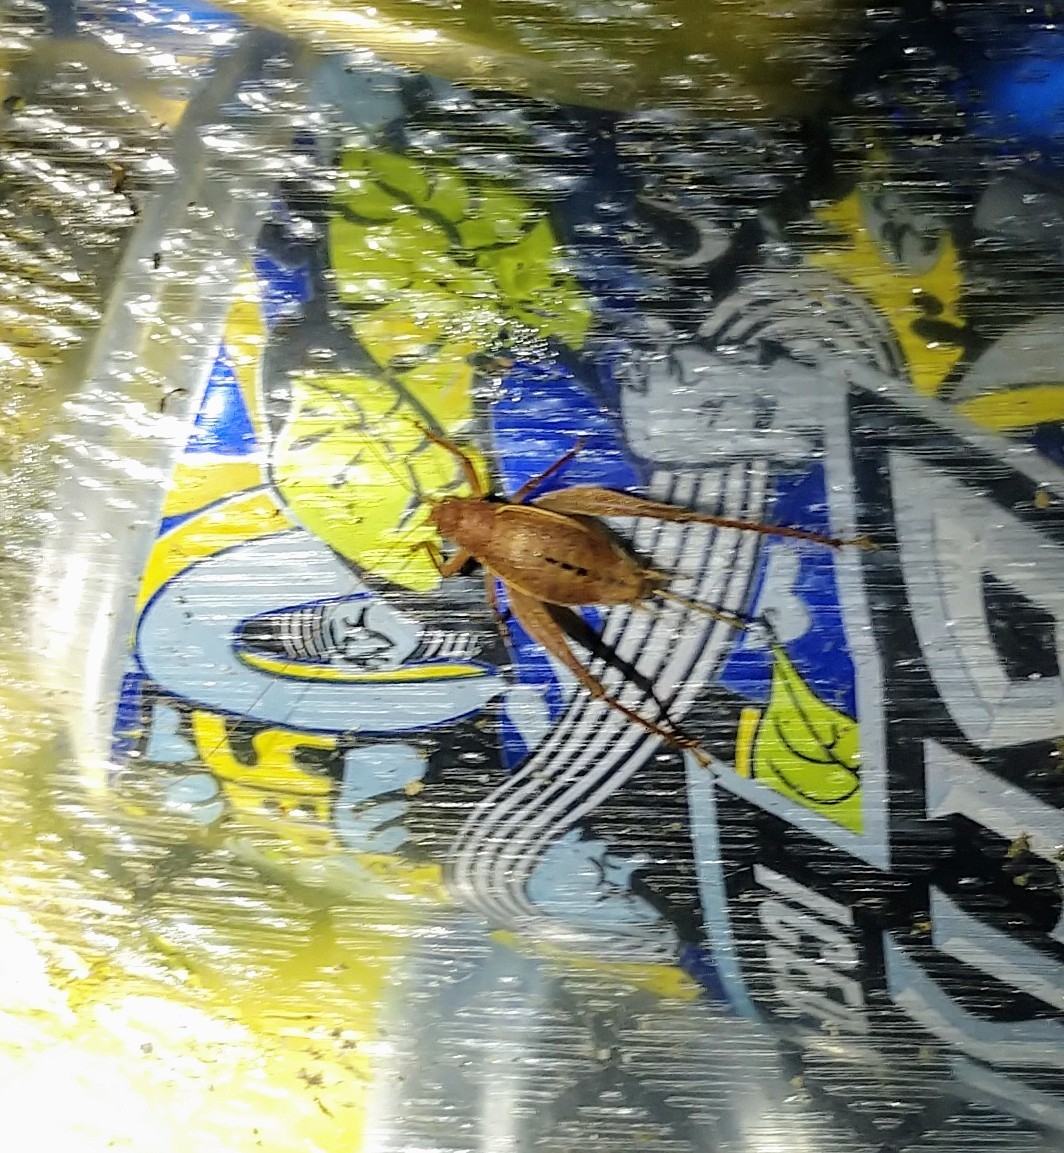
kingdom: Animalia
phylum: Arthropoda
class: Insecta
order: Orthoptera
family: Gryllidae
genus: Hapithus
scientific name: Hapithus agitator
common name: Restless bush cricket
